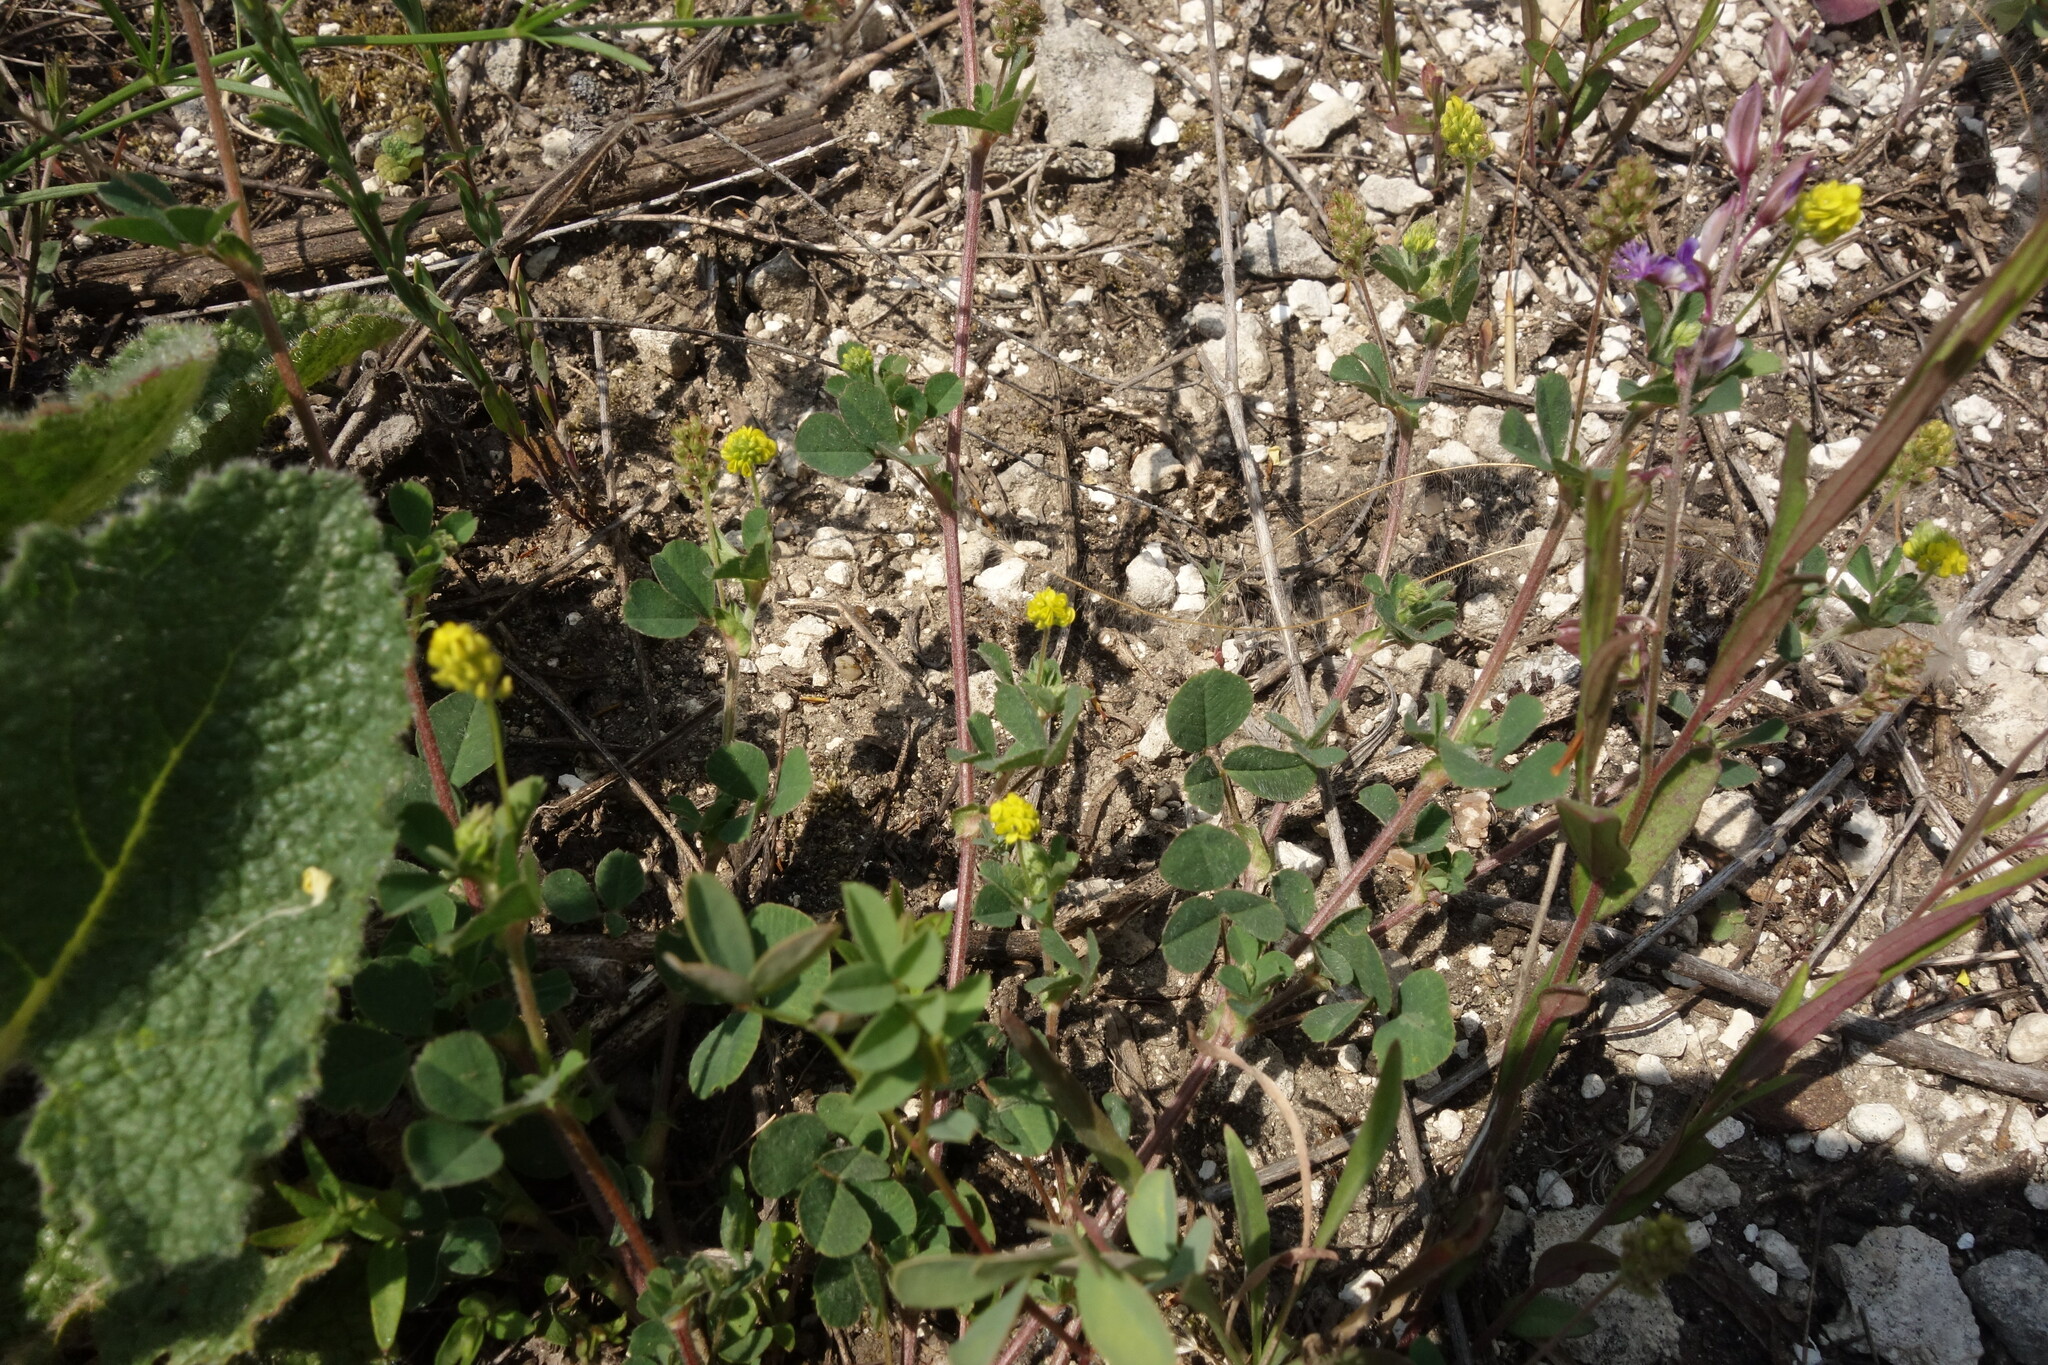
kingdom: Plantae
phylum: Tracheophyta
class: Magnoliopsida
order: Fabales
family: Fabaceae
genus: Medicago
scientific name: Medicago lupulina
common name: Black medick
